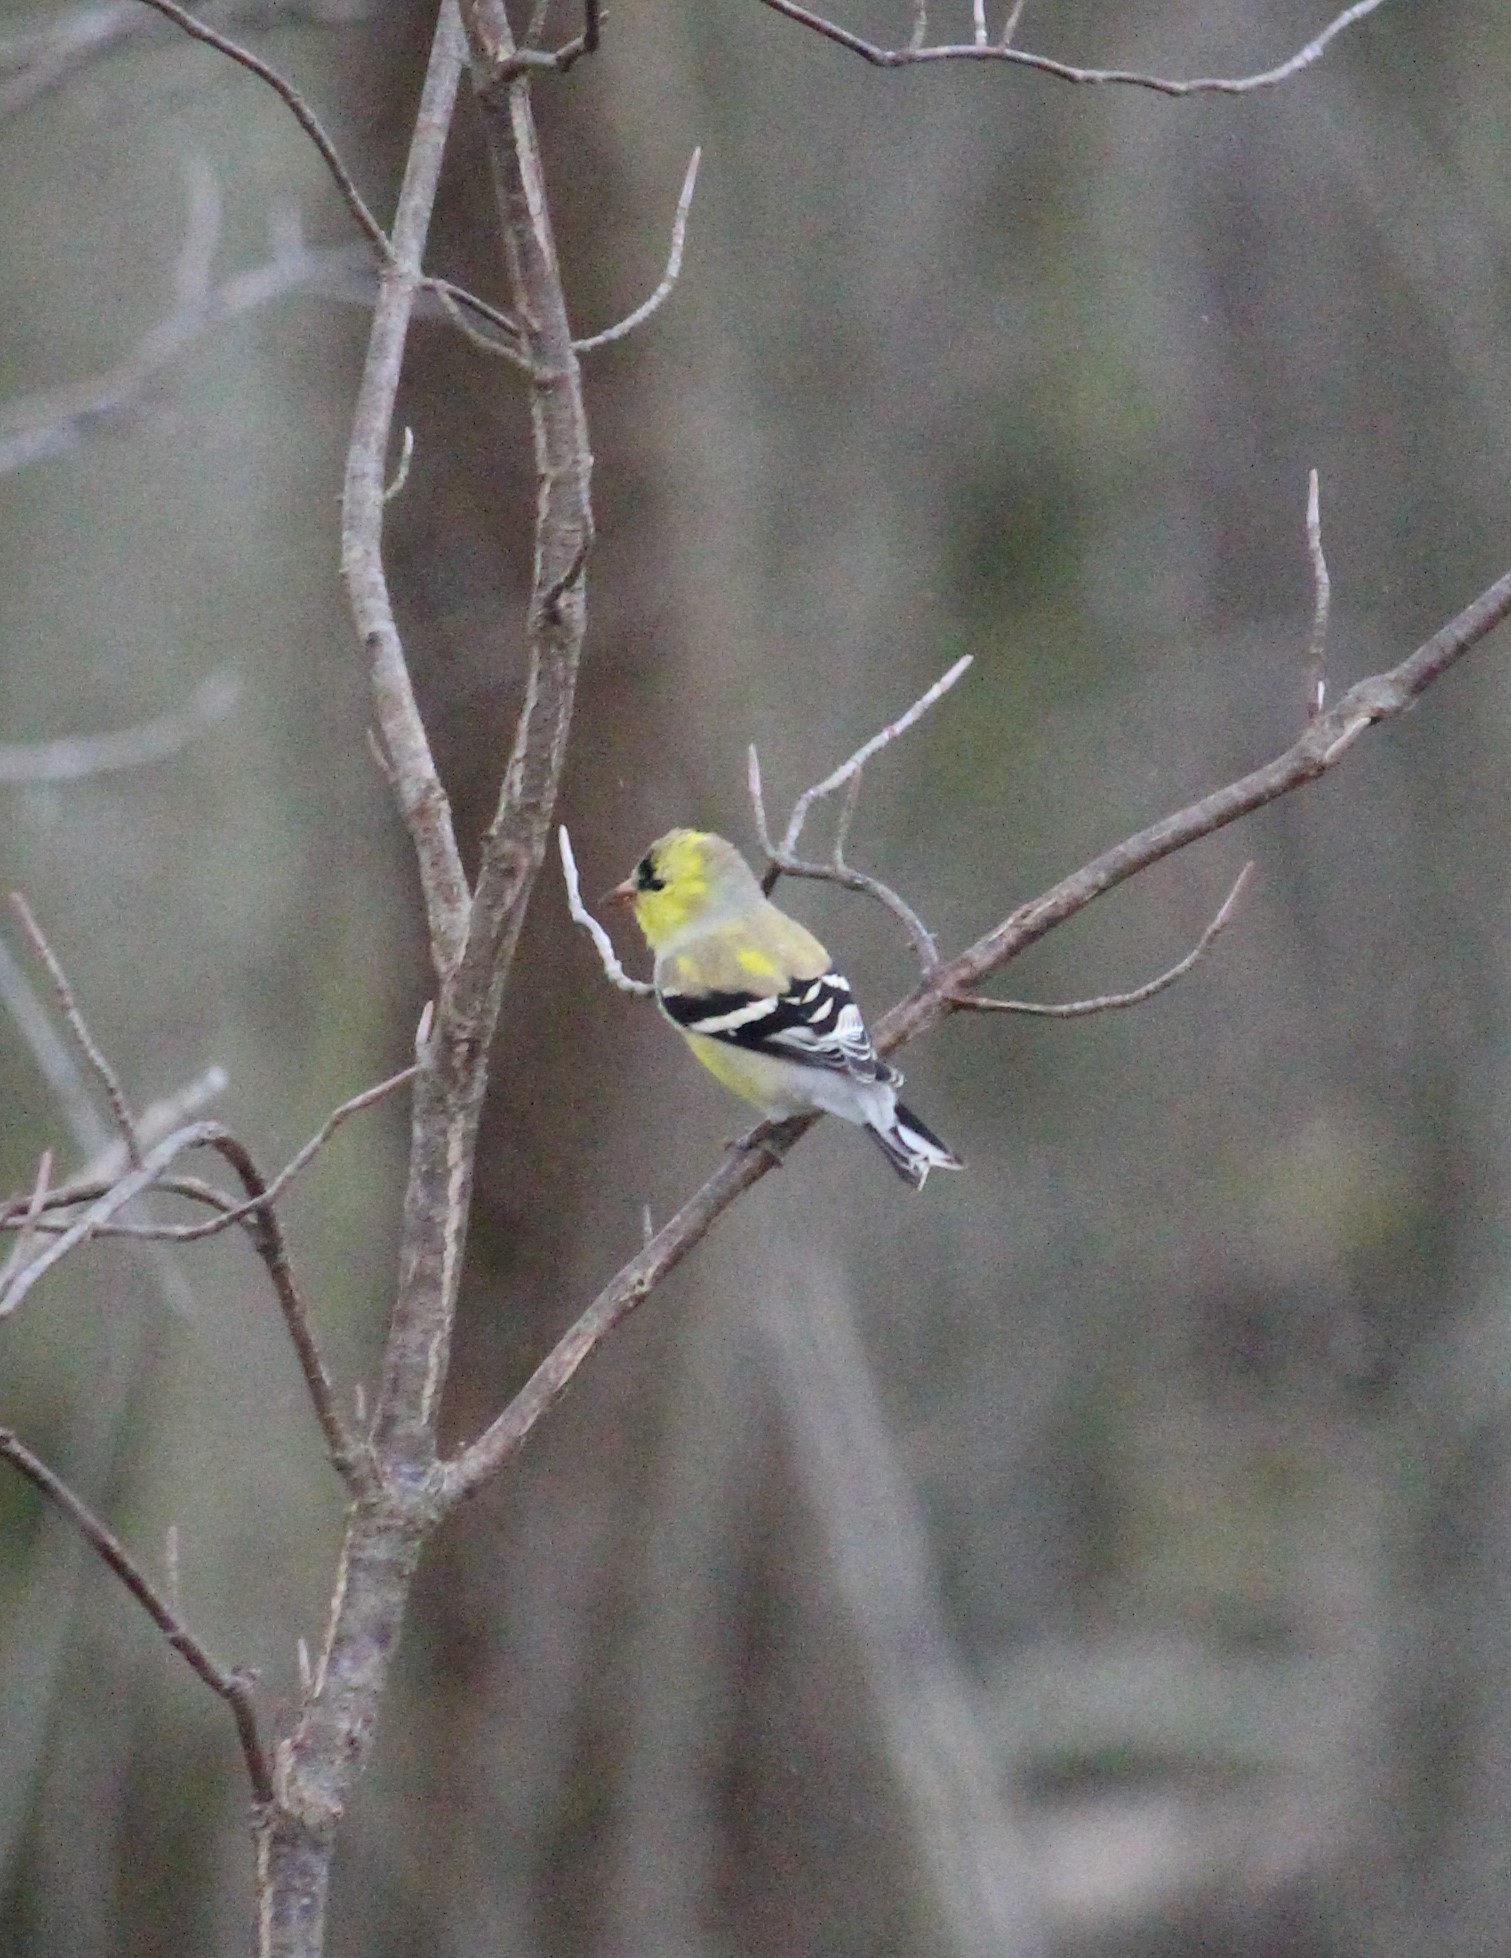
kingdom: Animalia
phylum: Chordata
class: Aves
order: Passeriformes
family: Fringillidae
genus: Spinus
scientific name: Spinus tristis
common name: American goldfinch
